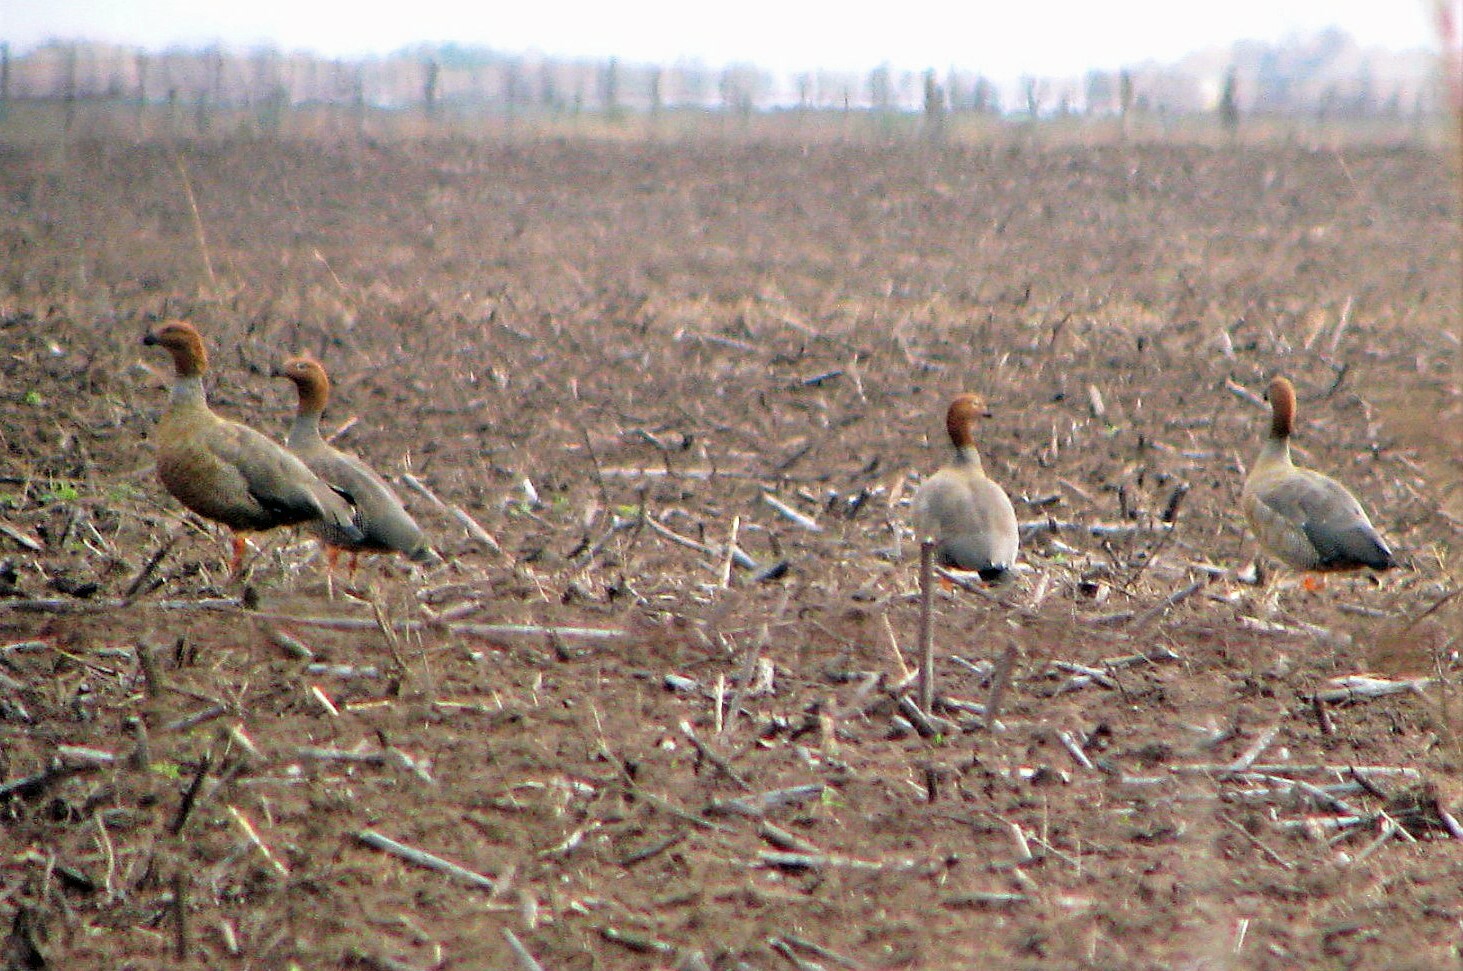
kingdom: Animalia
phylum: Chordata
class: Aves
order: Anseriformes
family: Anatidae
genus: Chloephaga
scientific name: Chloephaga rubidiceps
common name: Ruddy-headed goose
